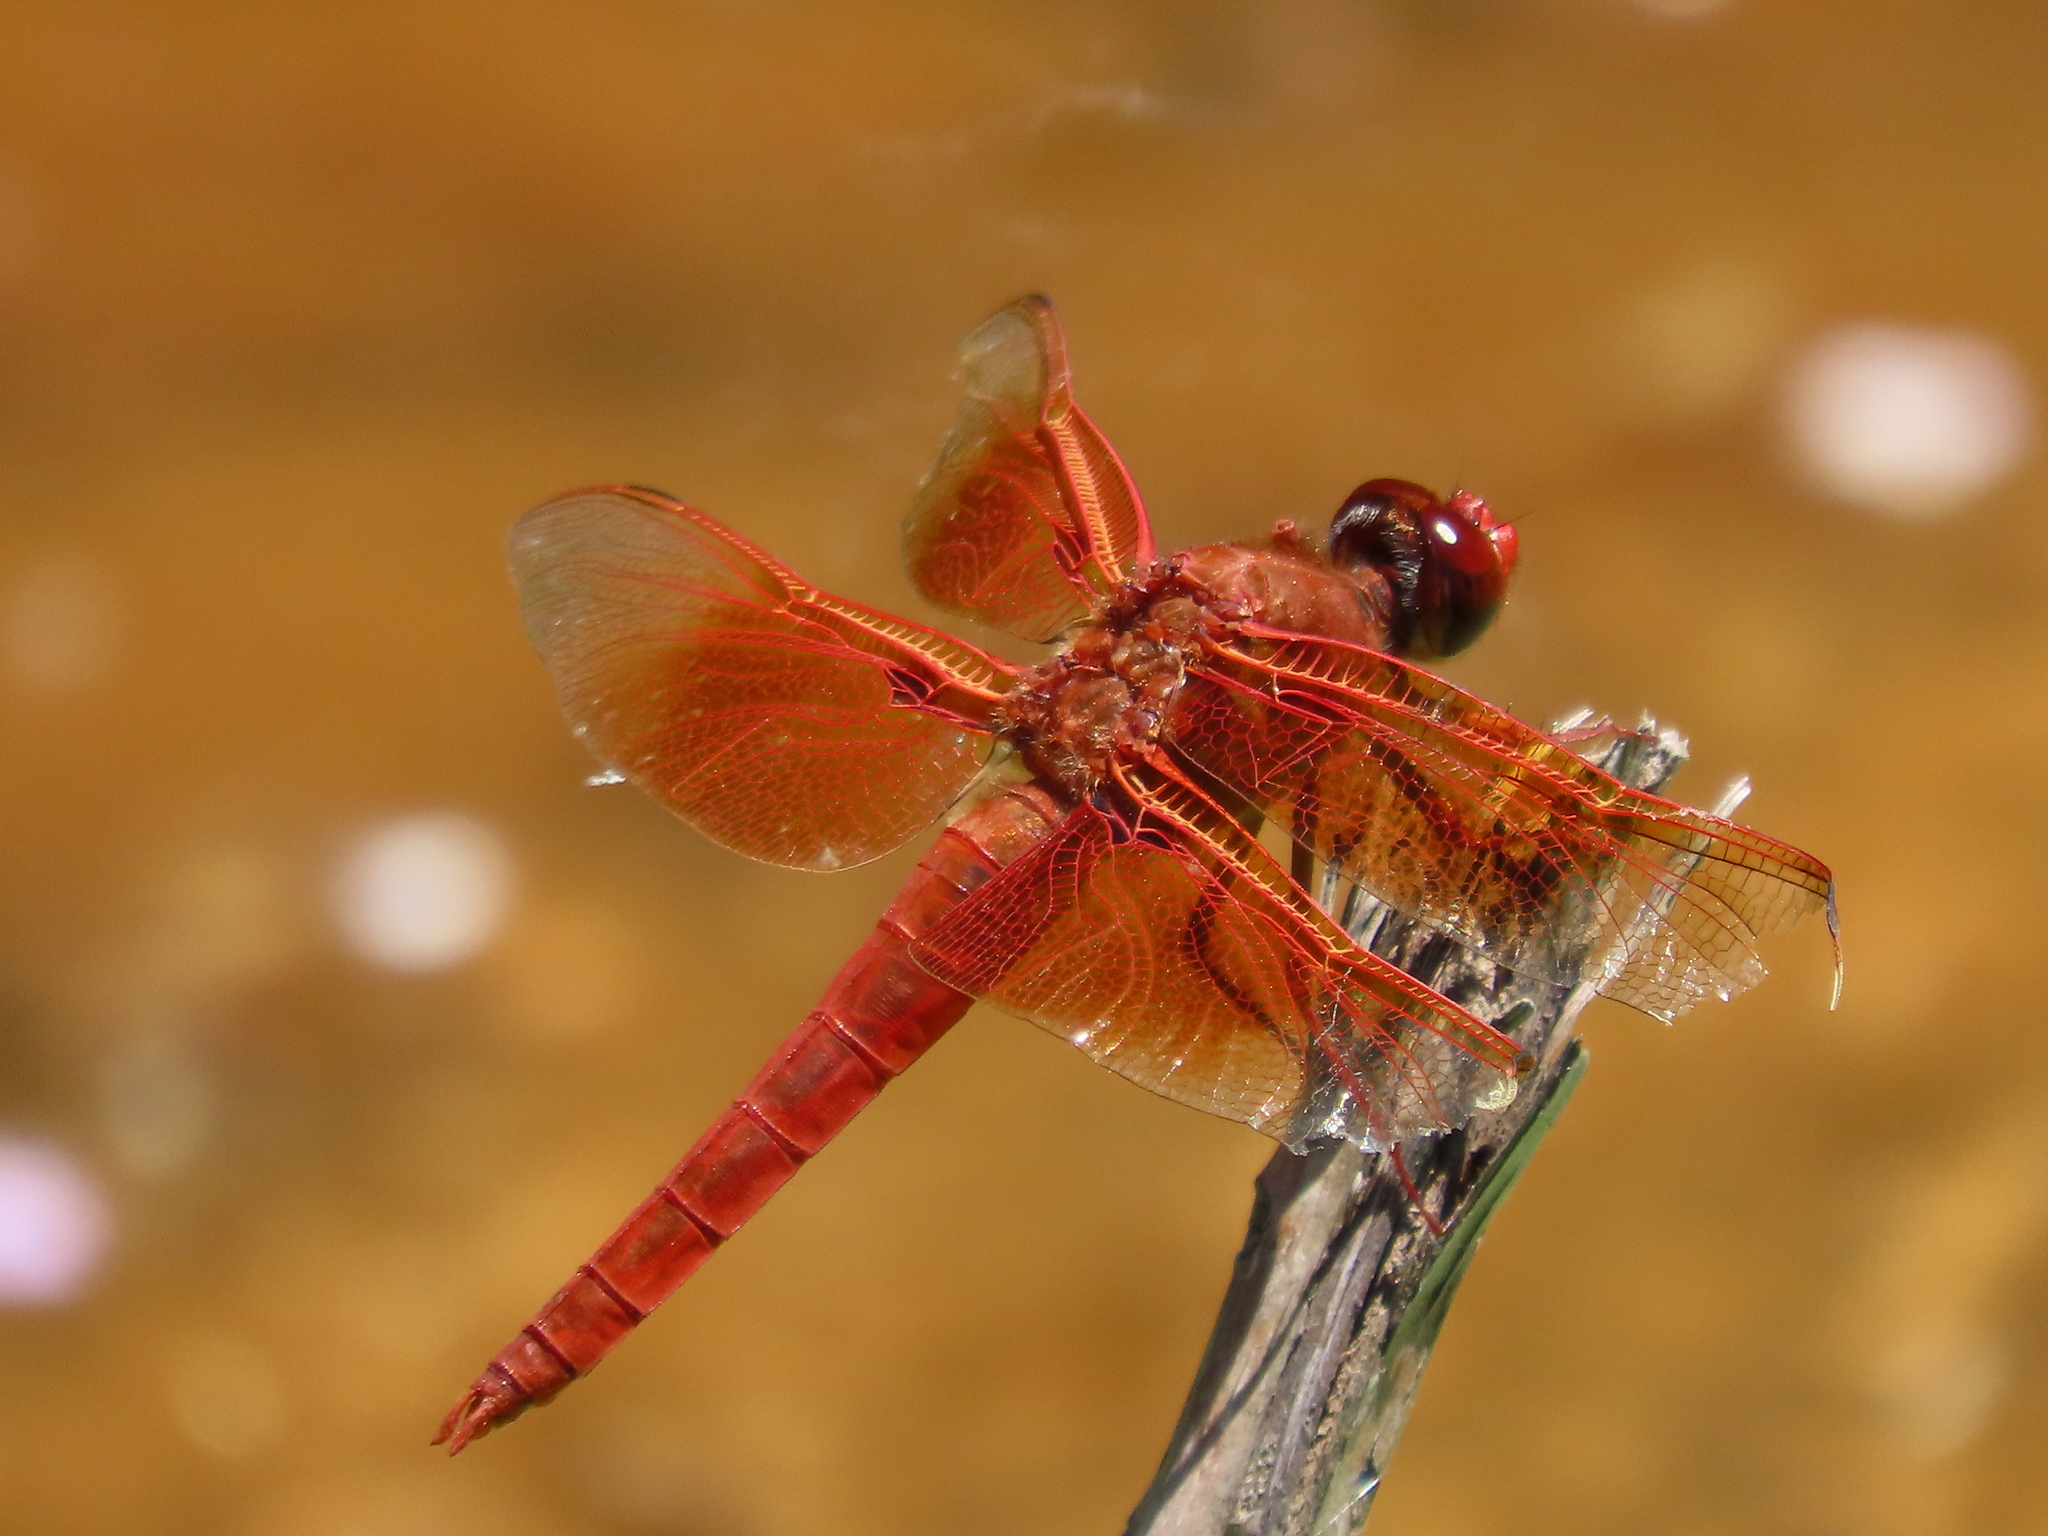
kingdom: Animalia
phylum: Arthropoda
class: Insecta
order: Odonata
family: Libellulidae
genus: Libellula
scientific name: Libellula saturata
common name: Flame skimmer
